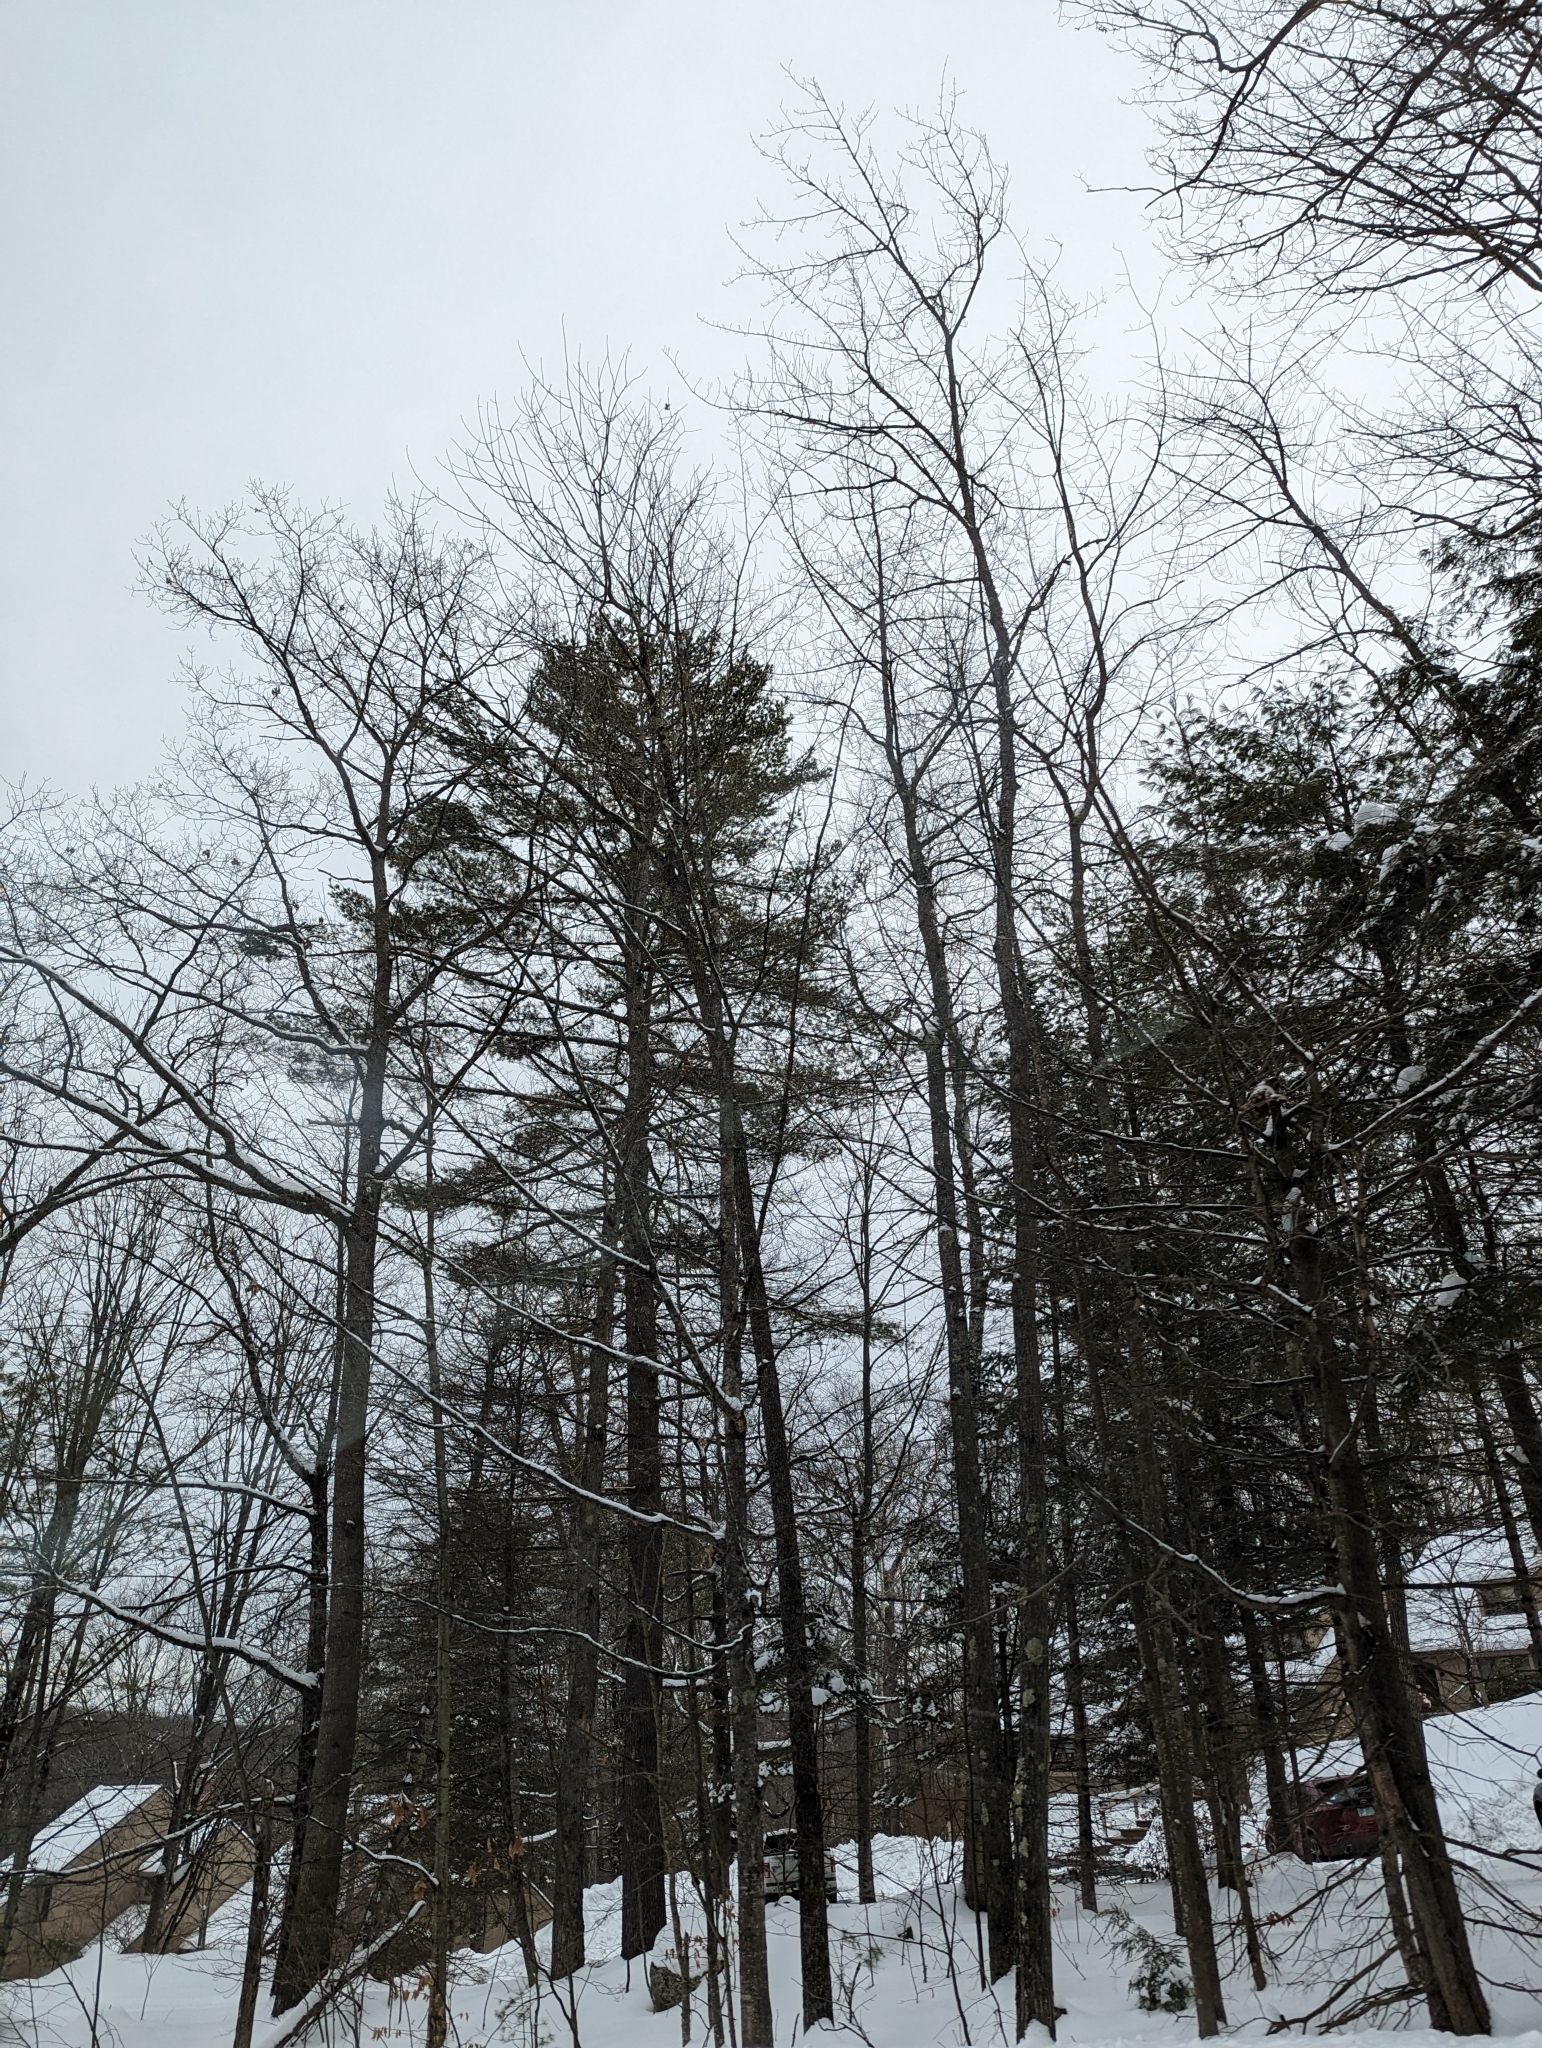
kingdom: Plantae
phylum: Tracheophyta
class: Pinopsida
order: Pinales
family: Pinaceae
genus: Pinus
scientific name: Pinus strobus
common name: Weymouth pine
